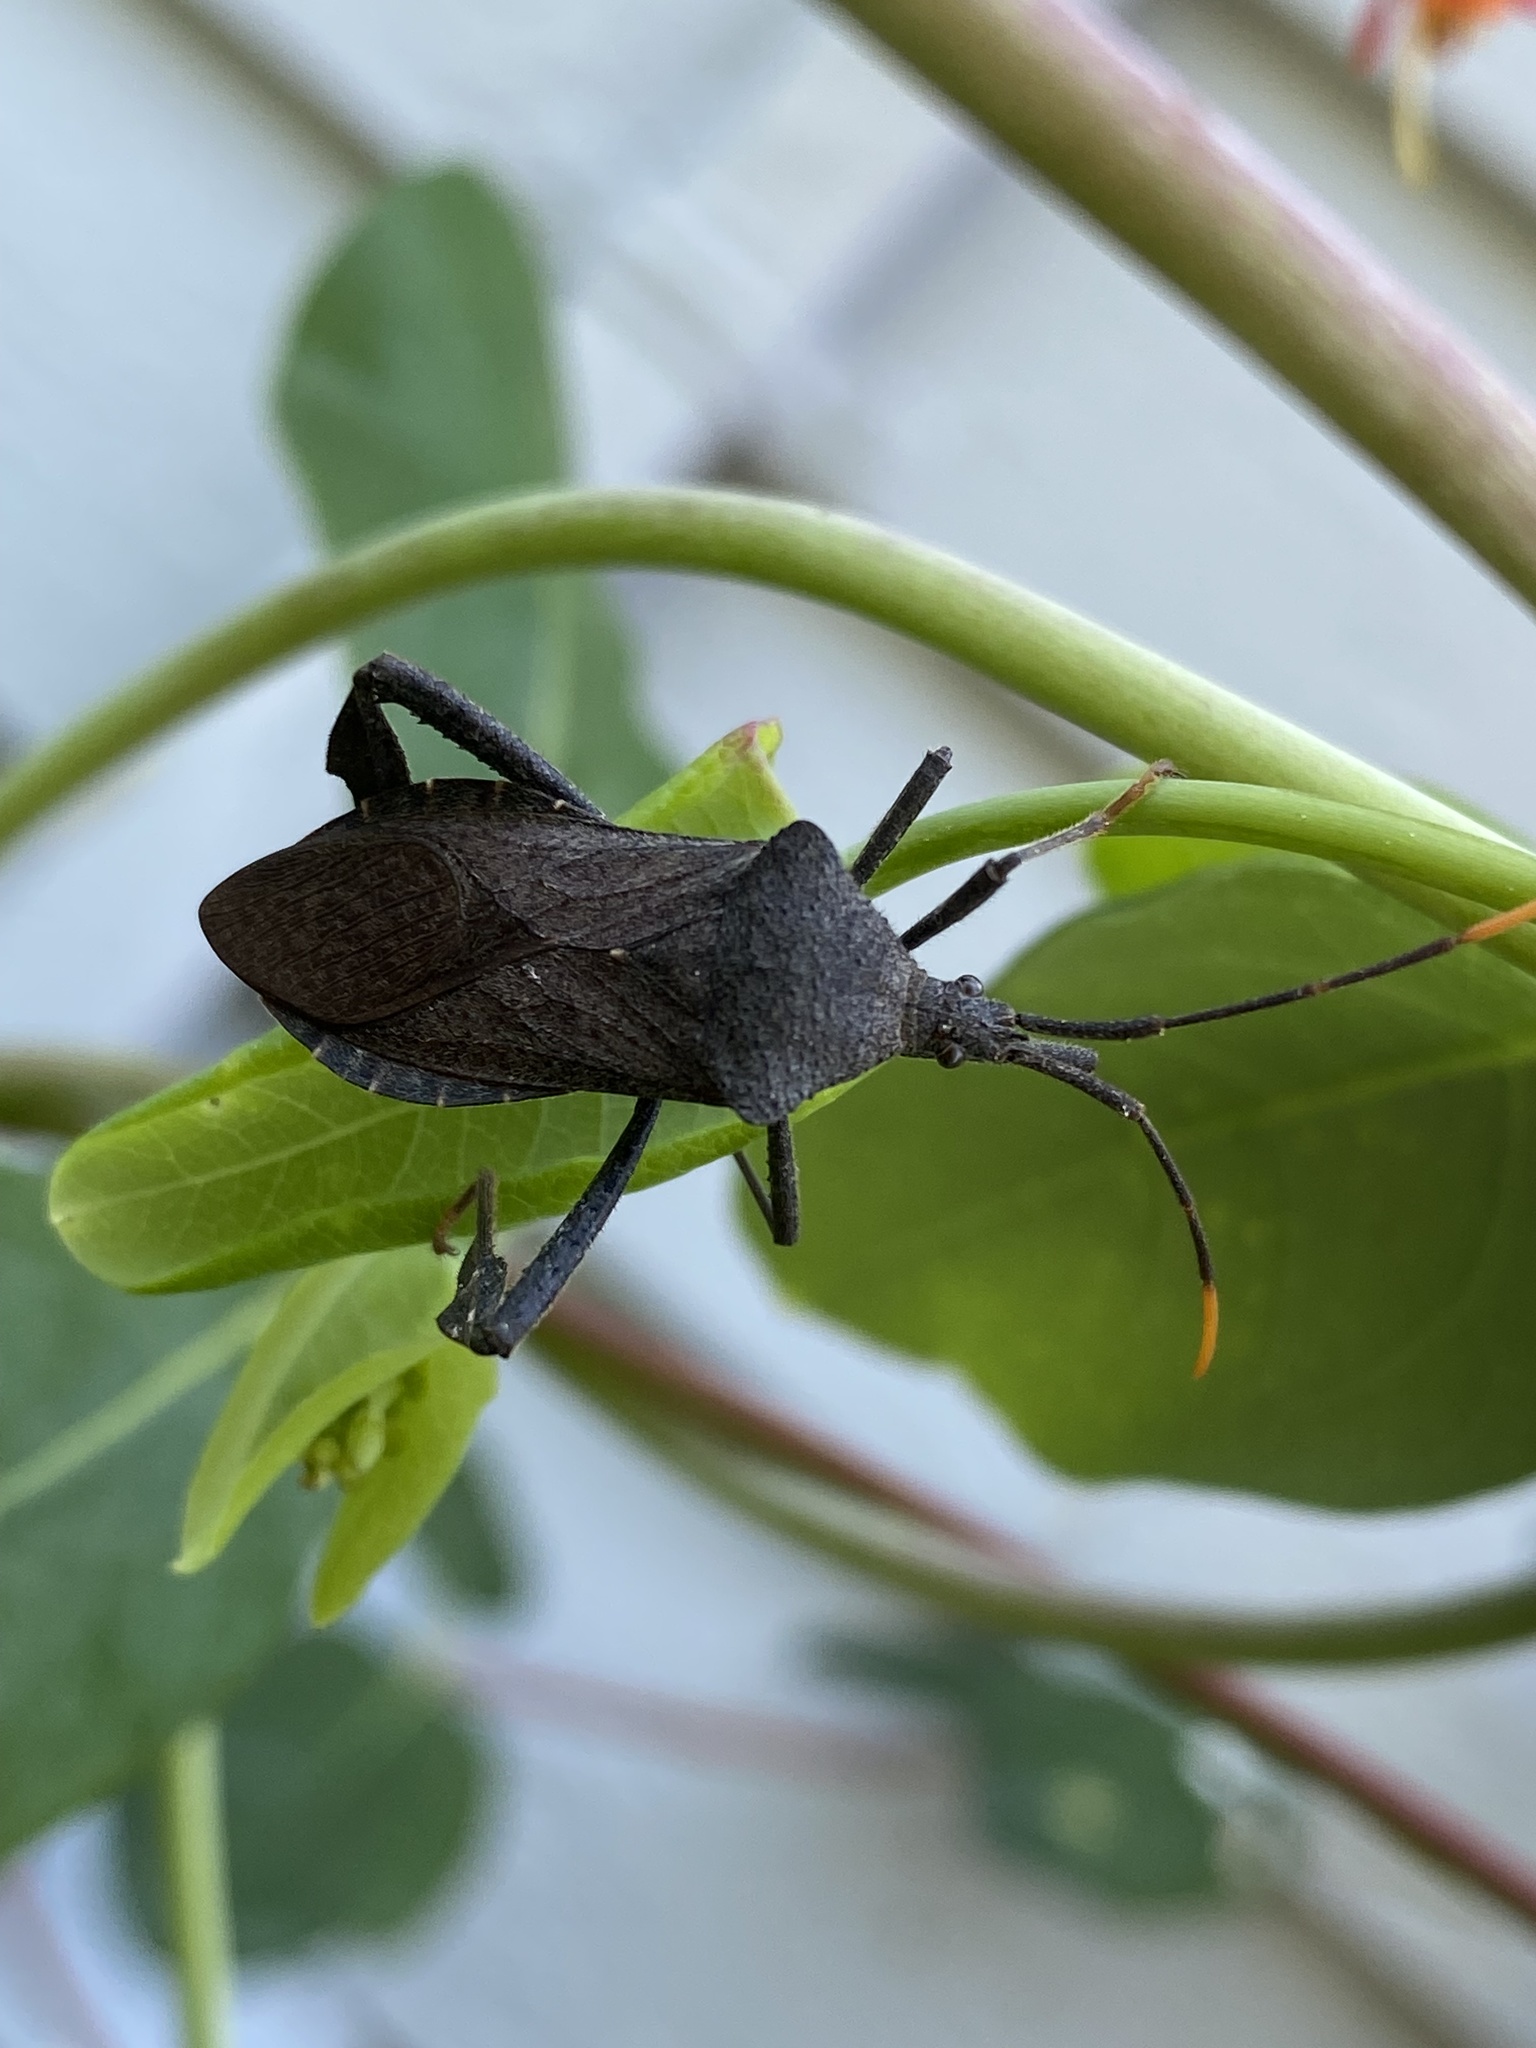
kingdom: Animalia
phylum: Arthropoda
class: Insecta
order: Hemiptera
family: Coreidae
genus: Acanthocephala
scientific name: Acanthocephala terminalis
